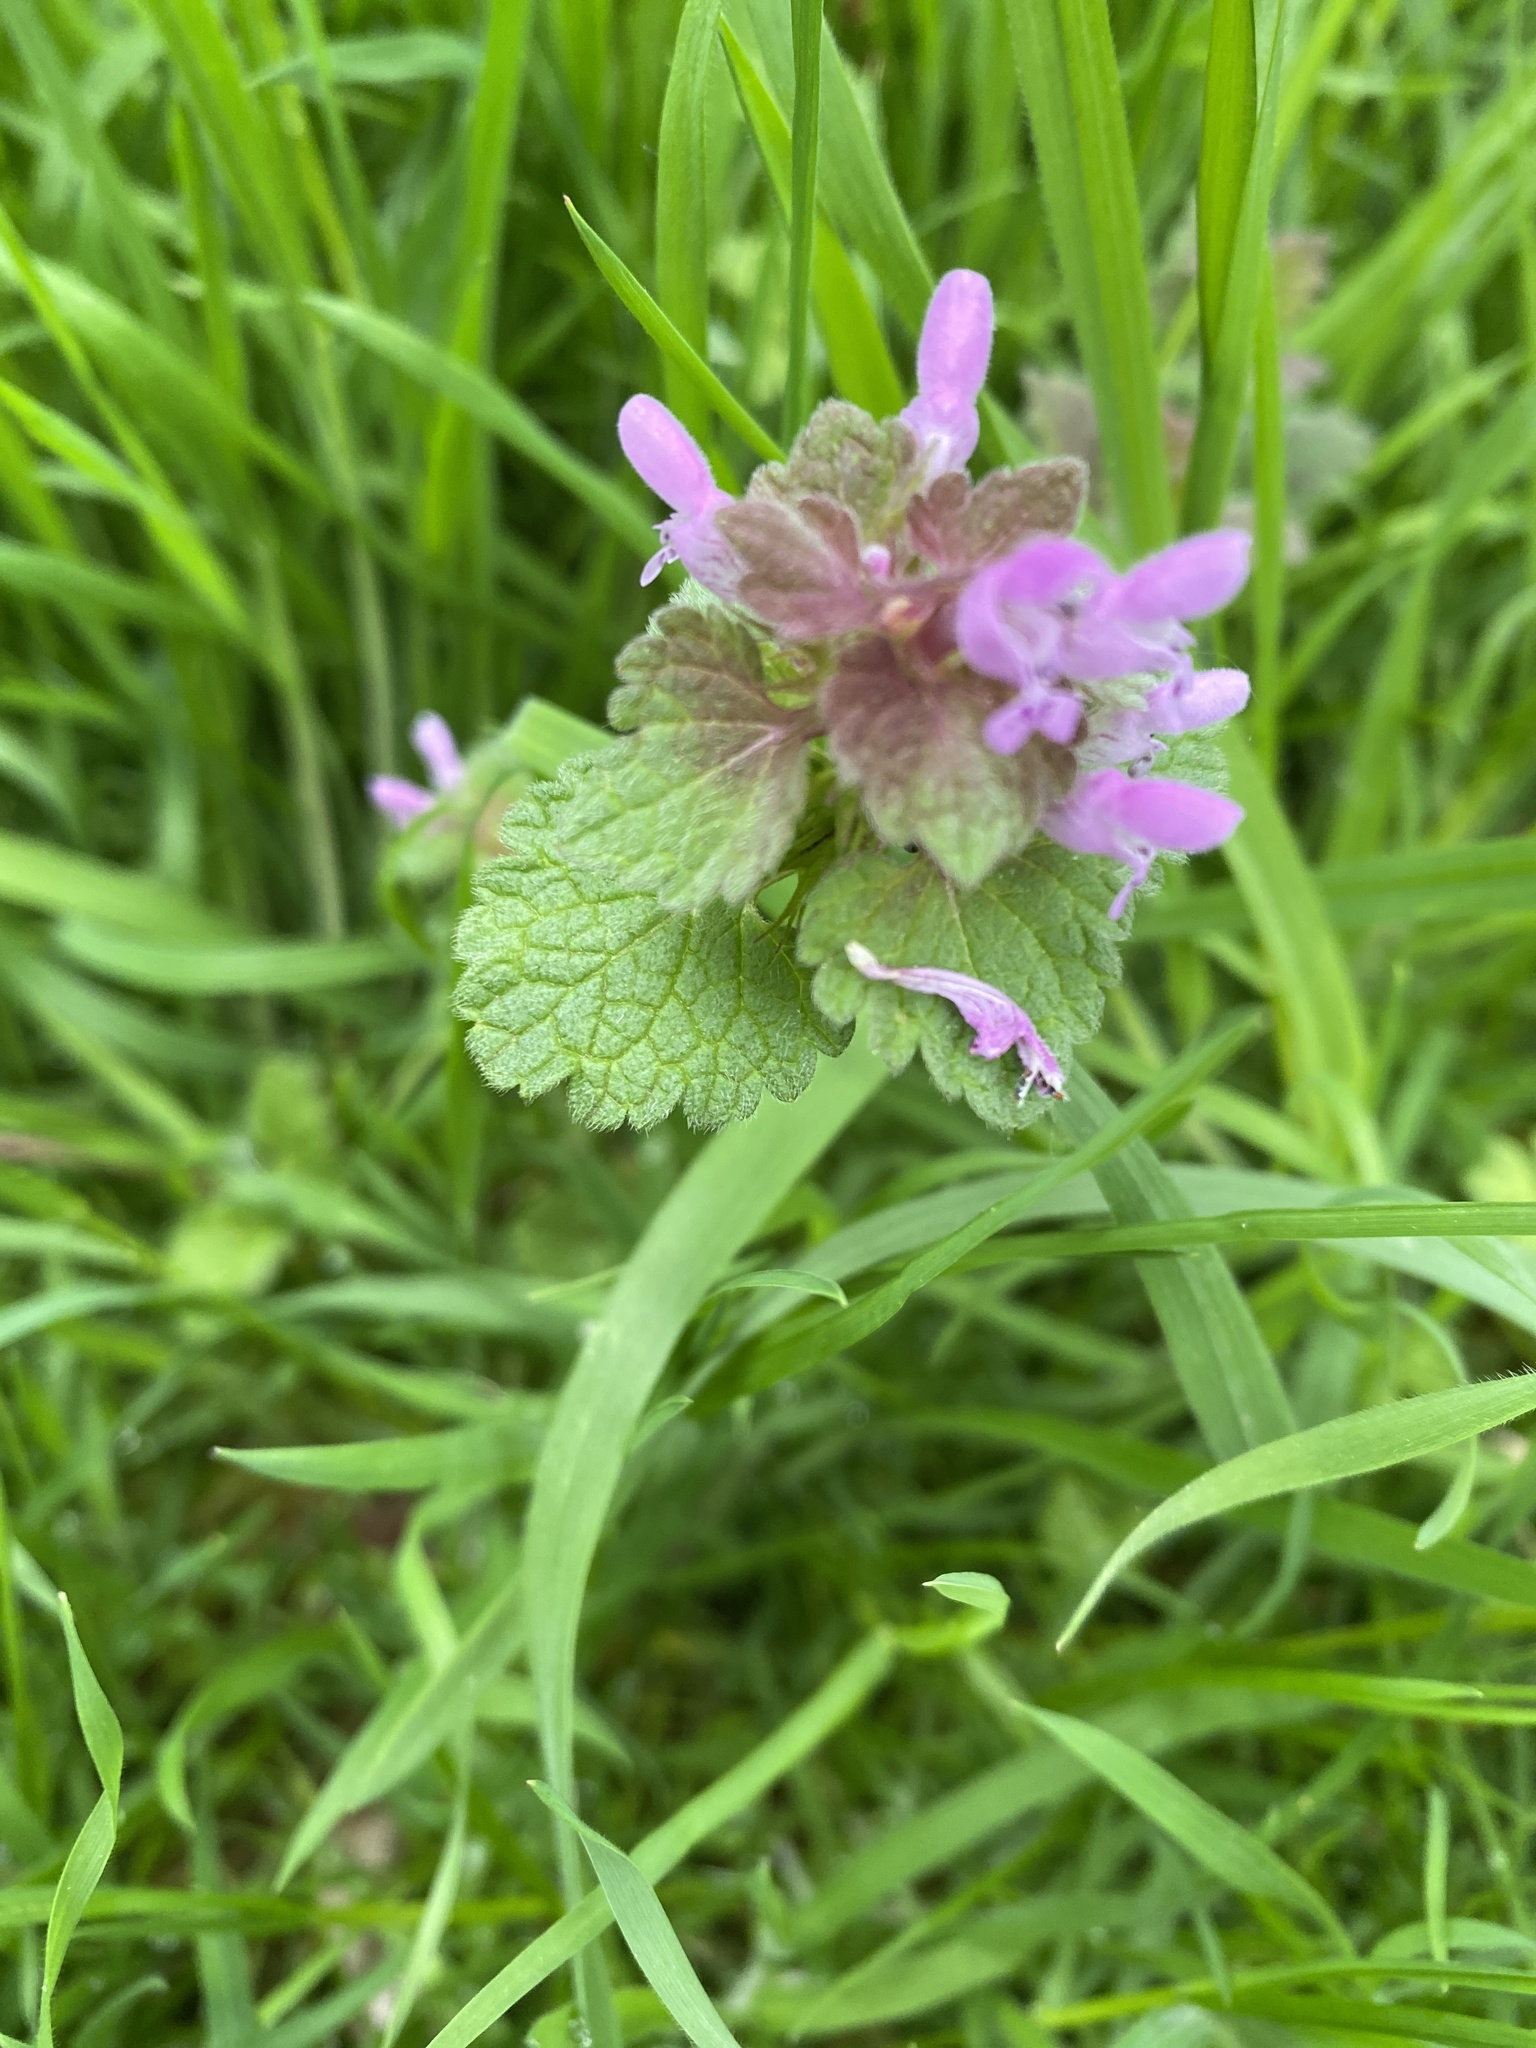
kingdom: Plantae
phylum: Tracheophyta
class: Magnoliopsida
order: Lamiales
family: Lamiaceae
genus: Lamium
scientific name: Lamium purpureum
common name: Red dead-nettle
